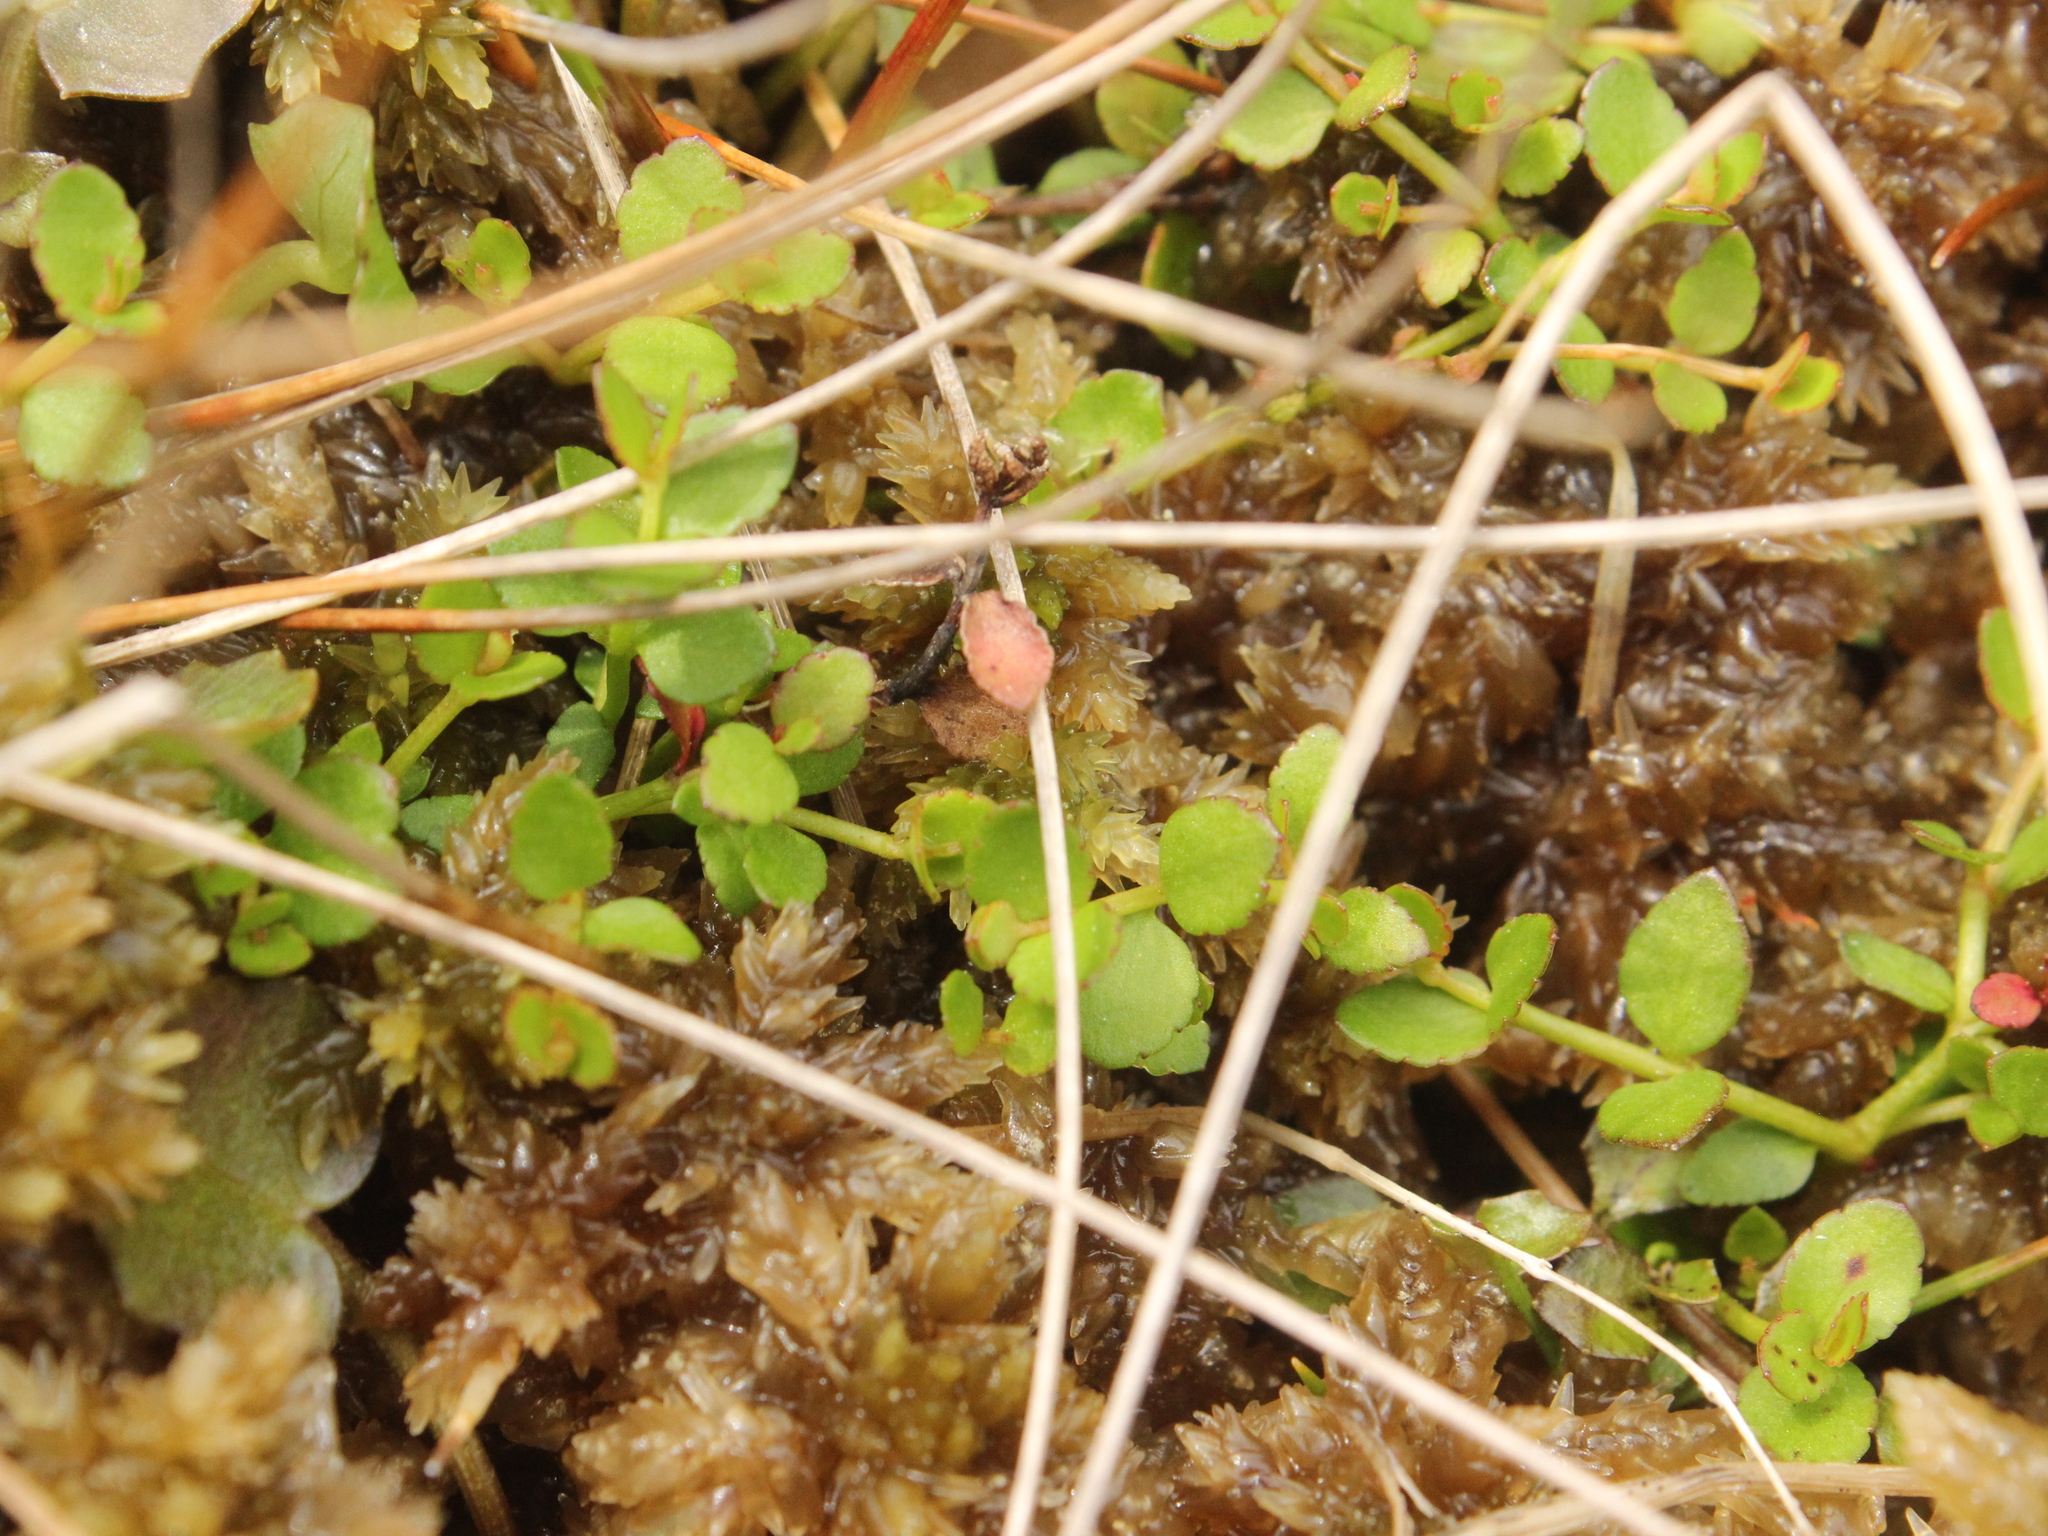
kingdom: Plantae
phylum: Tracheophyta
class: Magnoliopsida
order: Saxifragales
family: Haloragaceae
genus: Gonocarpus
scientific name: Gonocarpus micranthus
